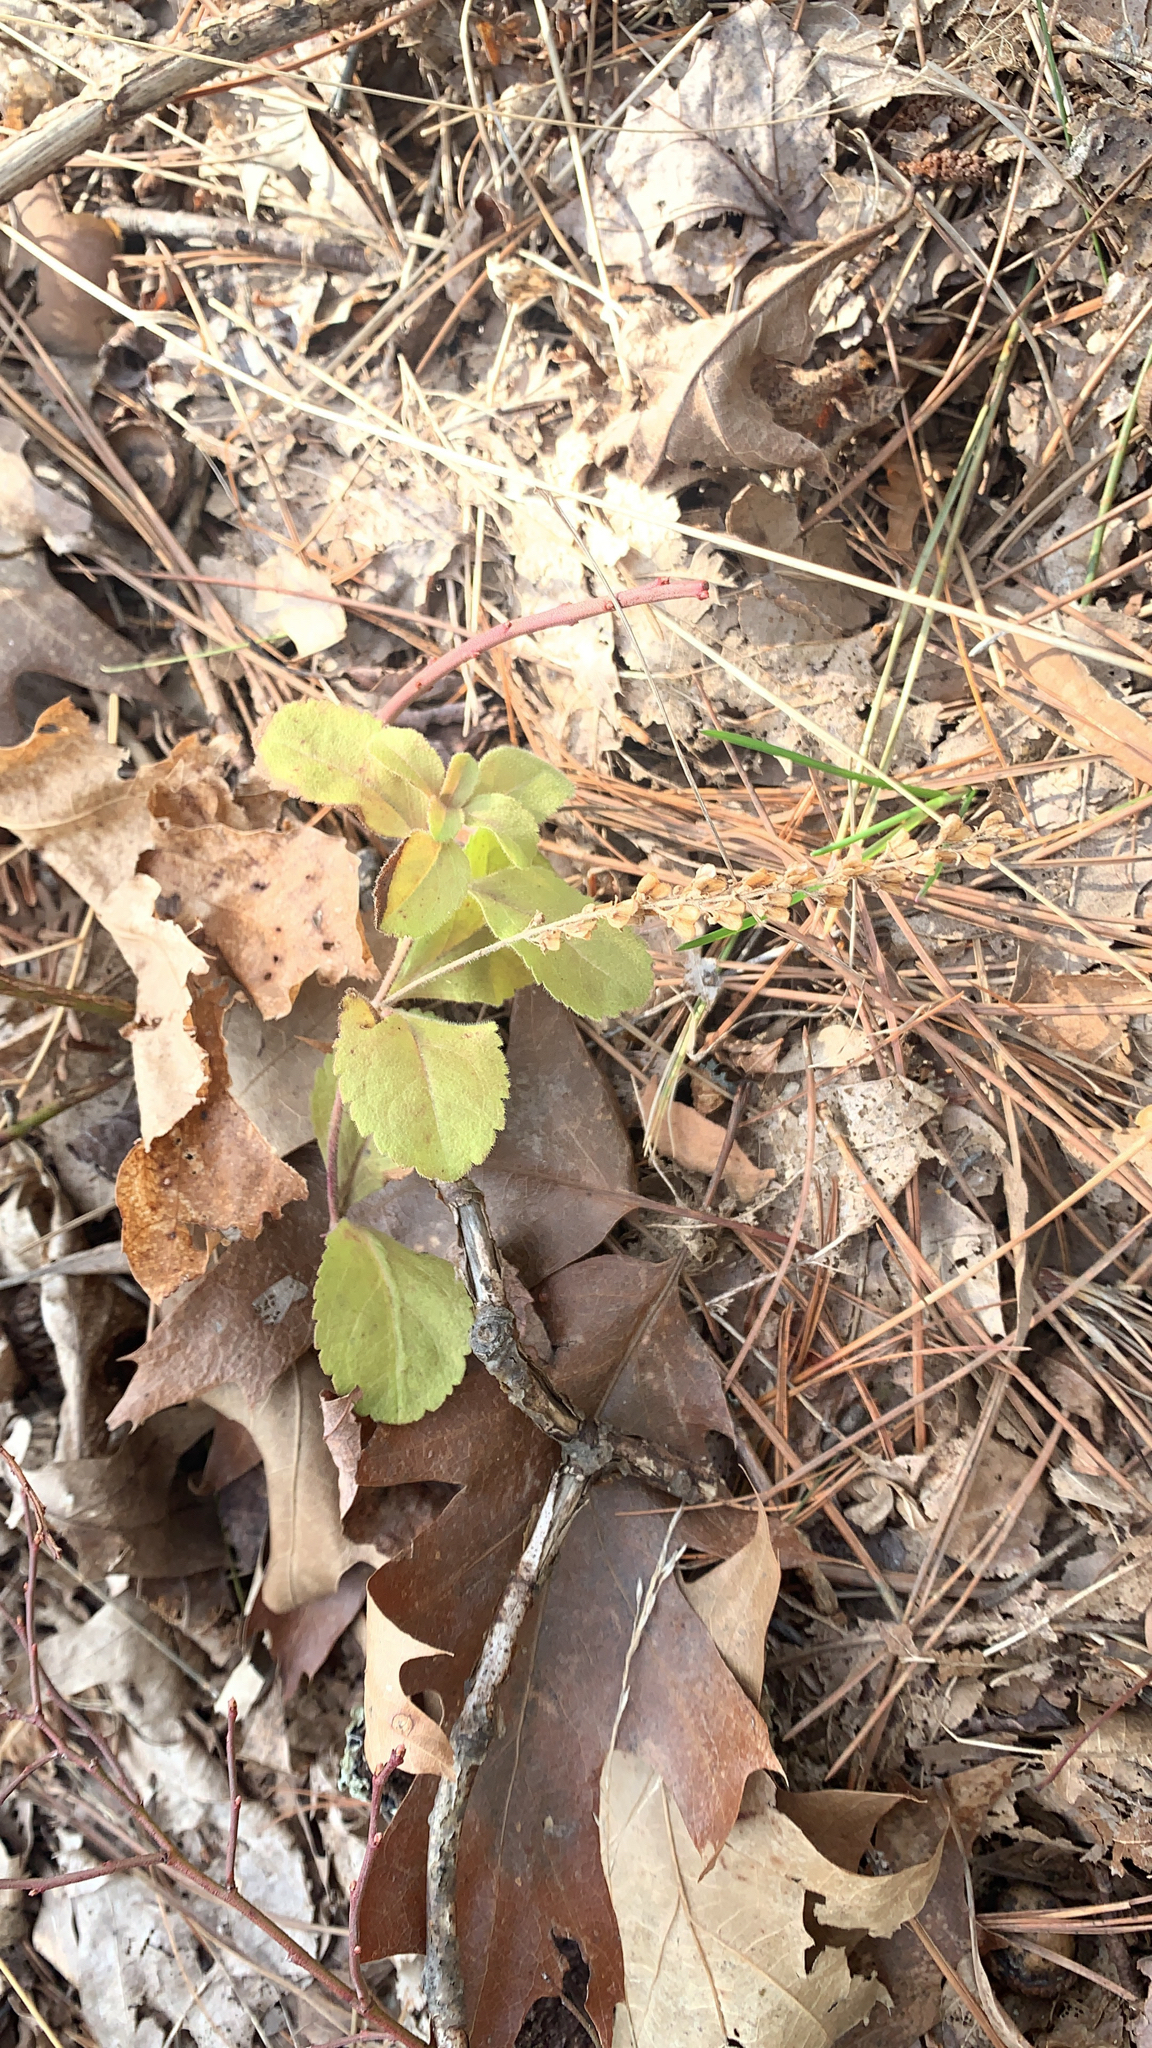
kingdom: Plantae
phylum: Tracheophyta
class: Magnoliopsida
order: Lamiales
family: Plantaginaceae
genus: Veronica
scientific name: Veronica officinalis
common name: Common speedwell
